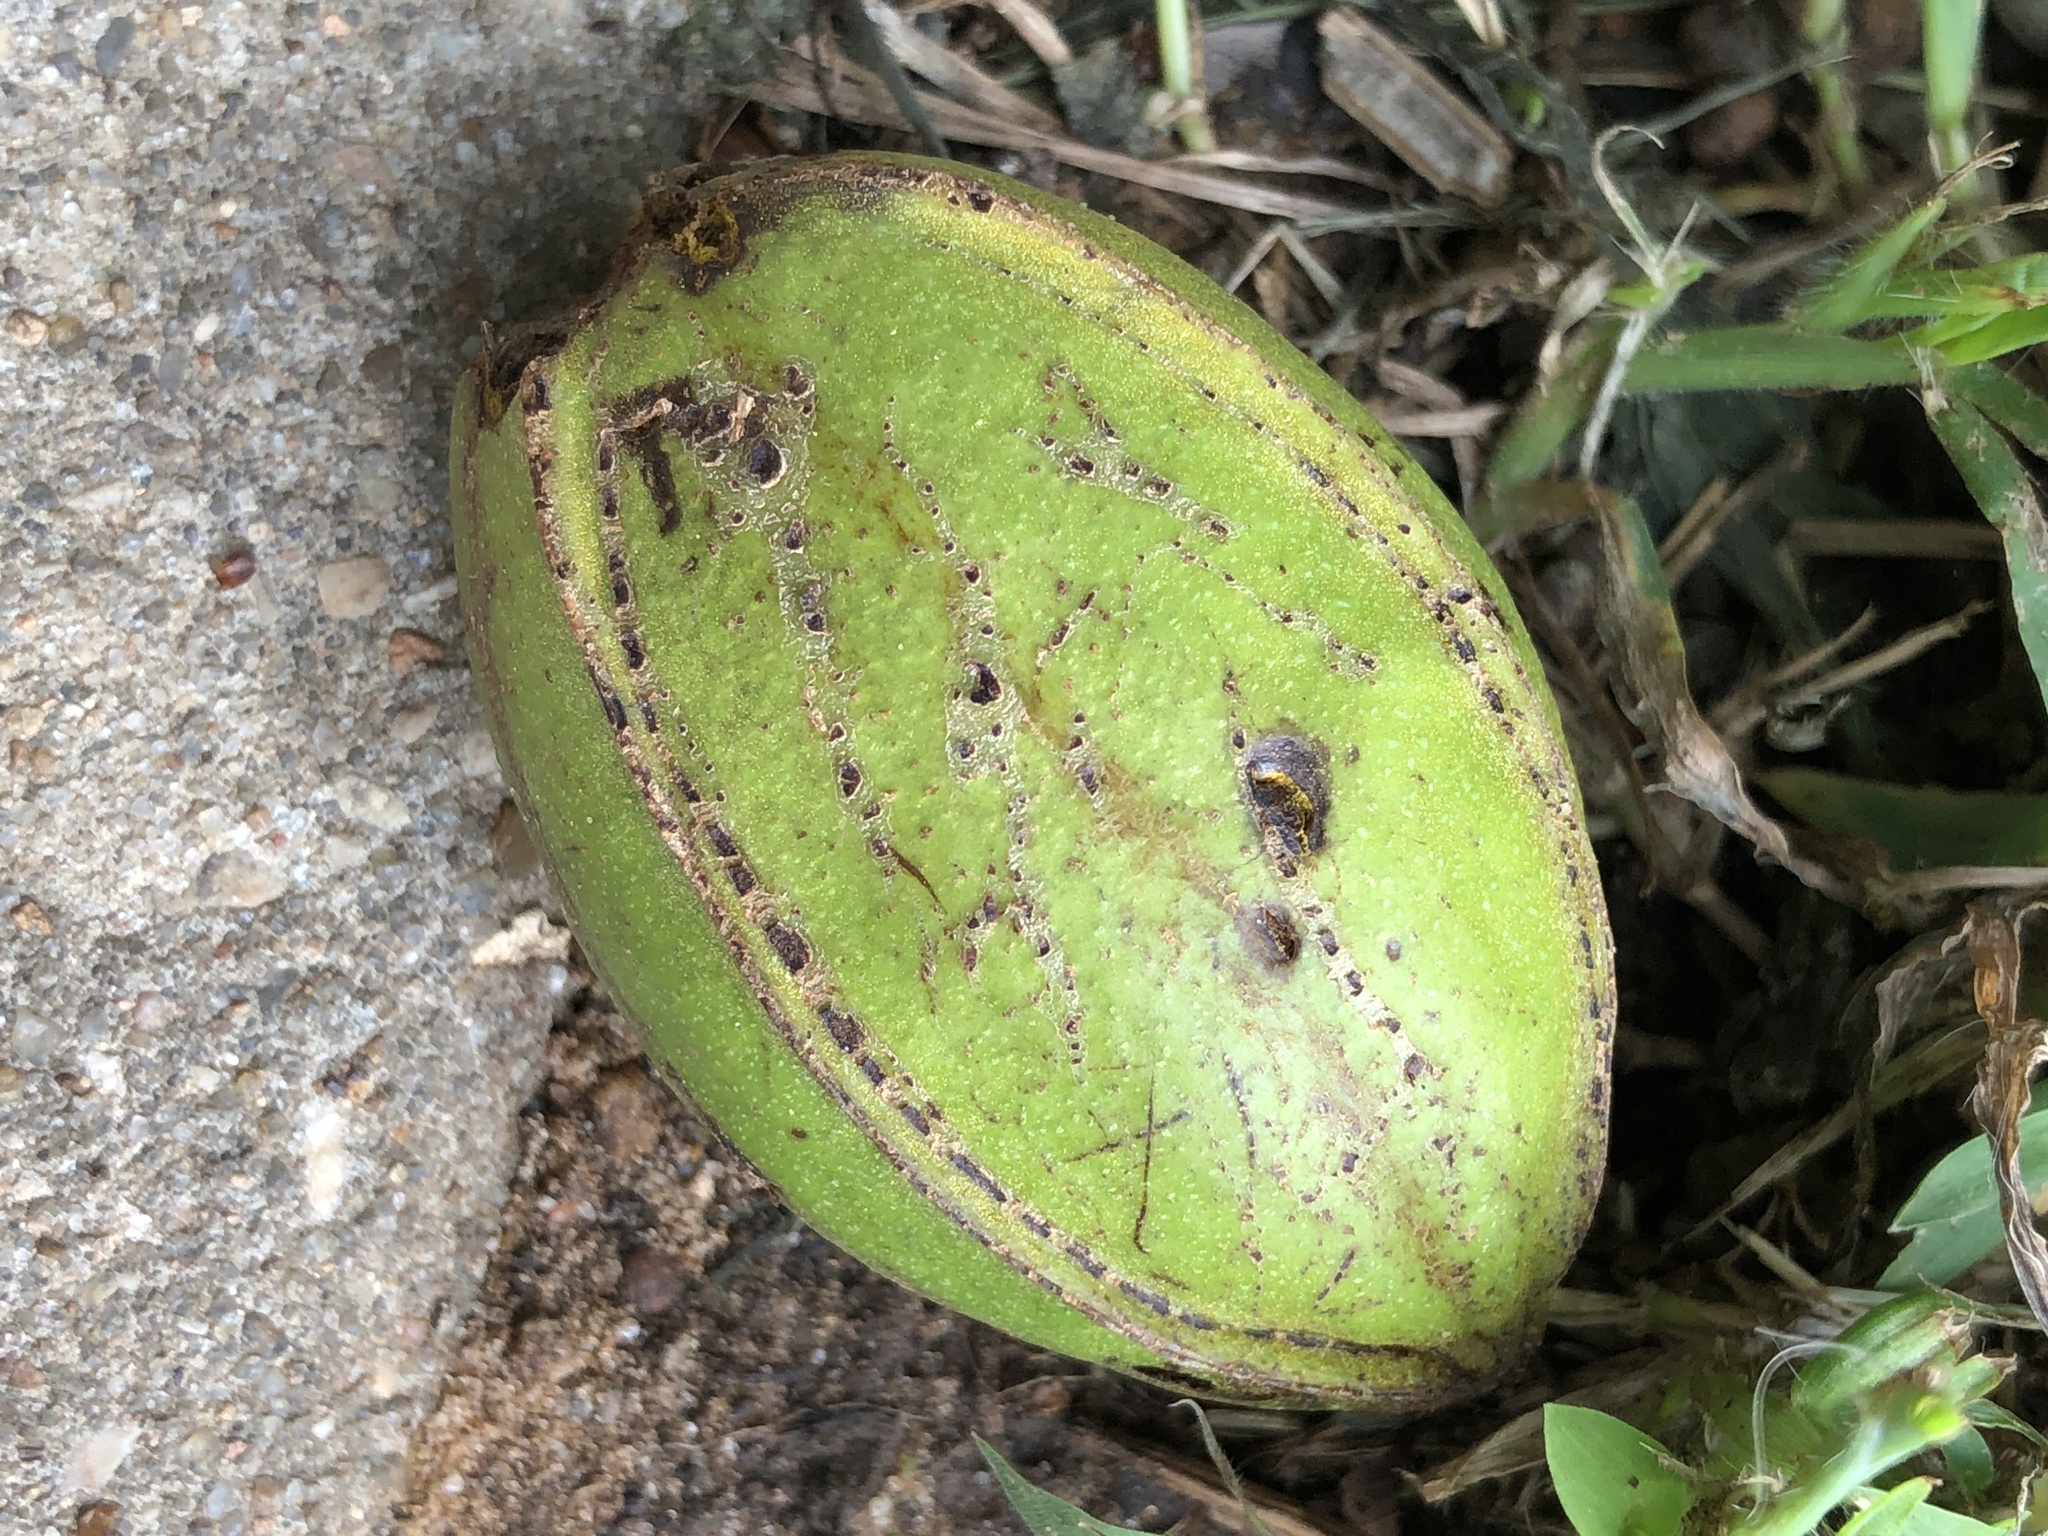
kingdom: Plantae
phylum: Tracheophyta
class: Magnoliopsida
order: Fagales
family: Juglandaceae
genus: Carya
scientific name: Carya illinoinensis
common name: Pecan
